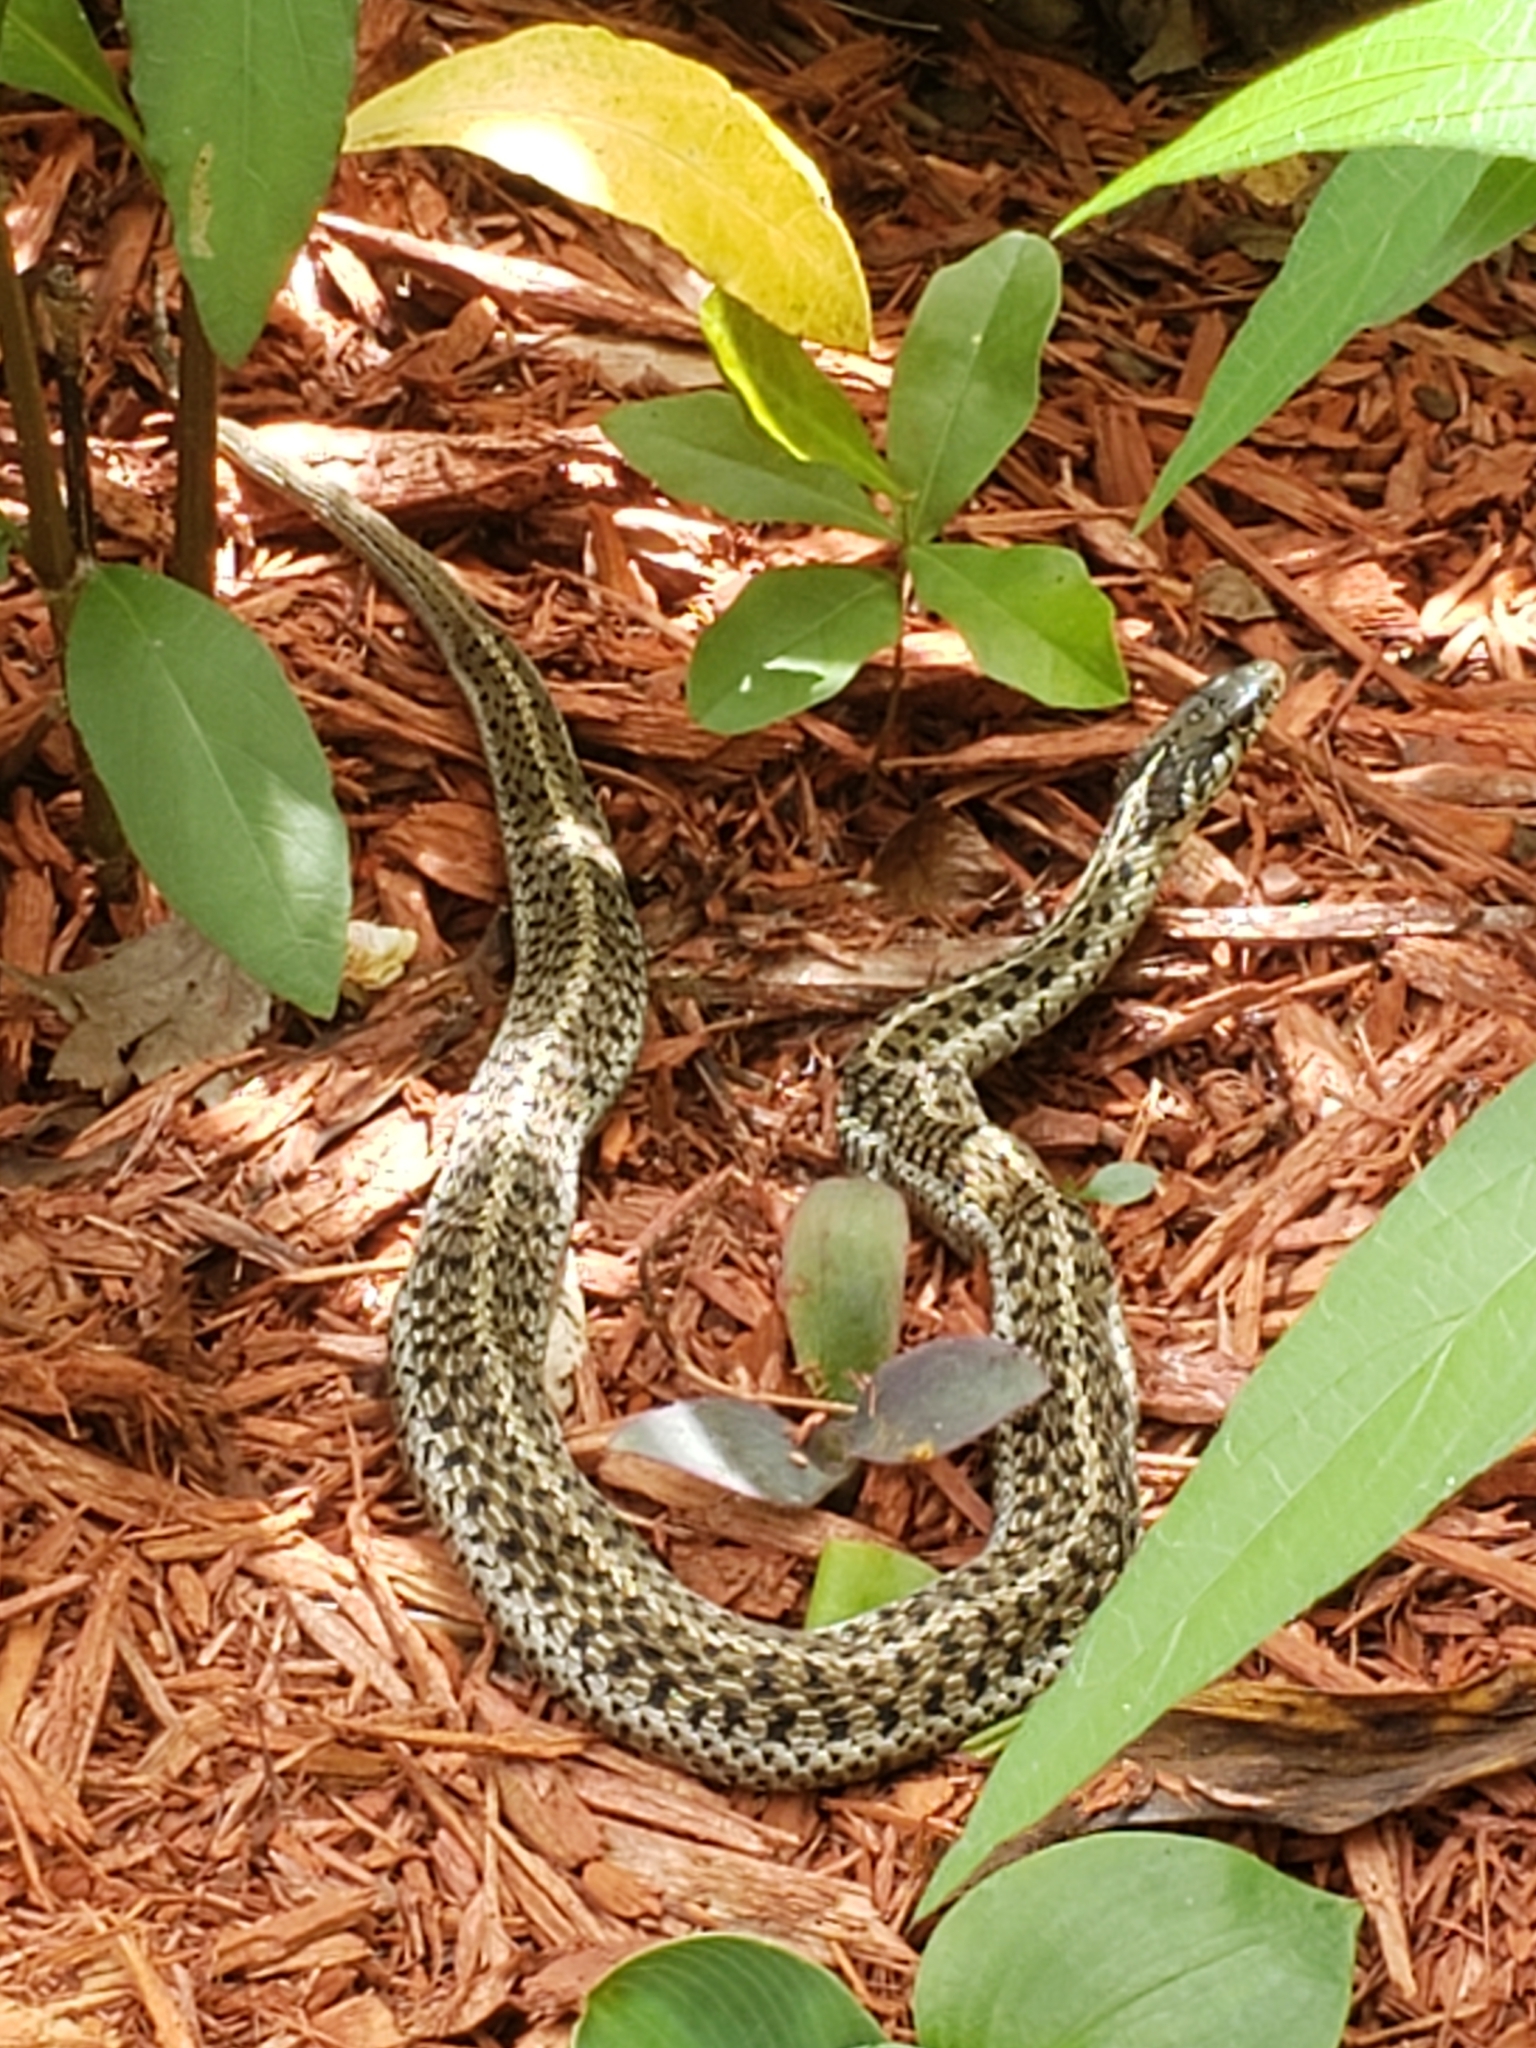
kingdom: Animalia
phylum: Chordata
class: Squamata
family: Colubridae
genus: Thamnophis
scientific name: Thamnophis sirtalis
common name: Common garter snake
